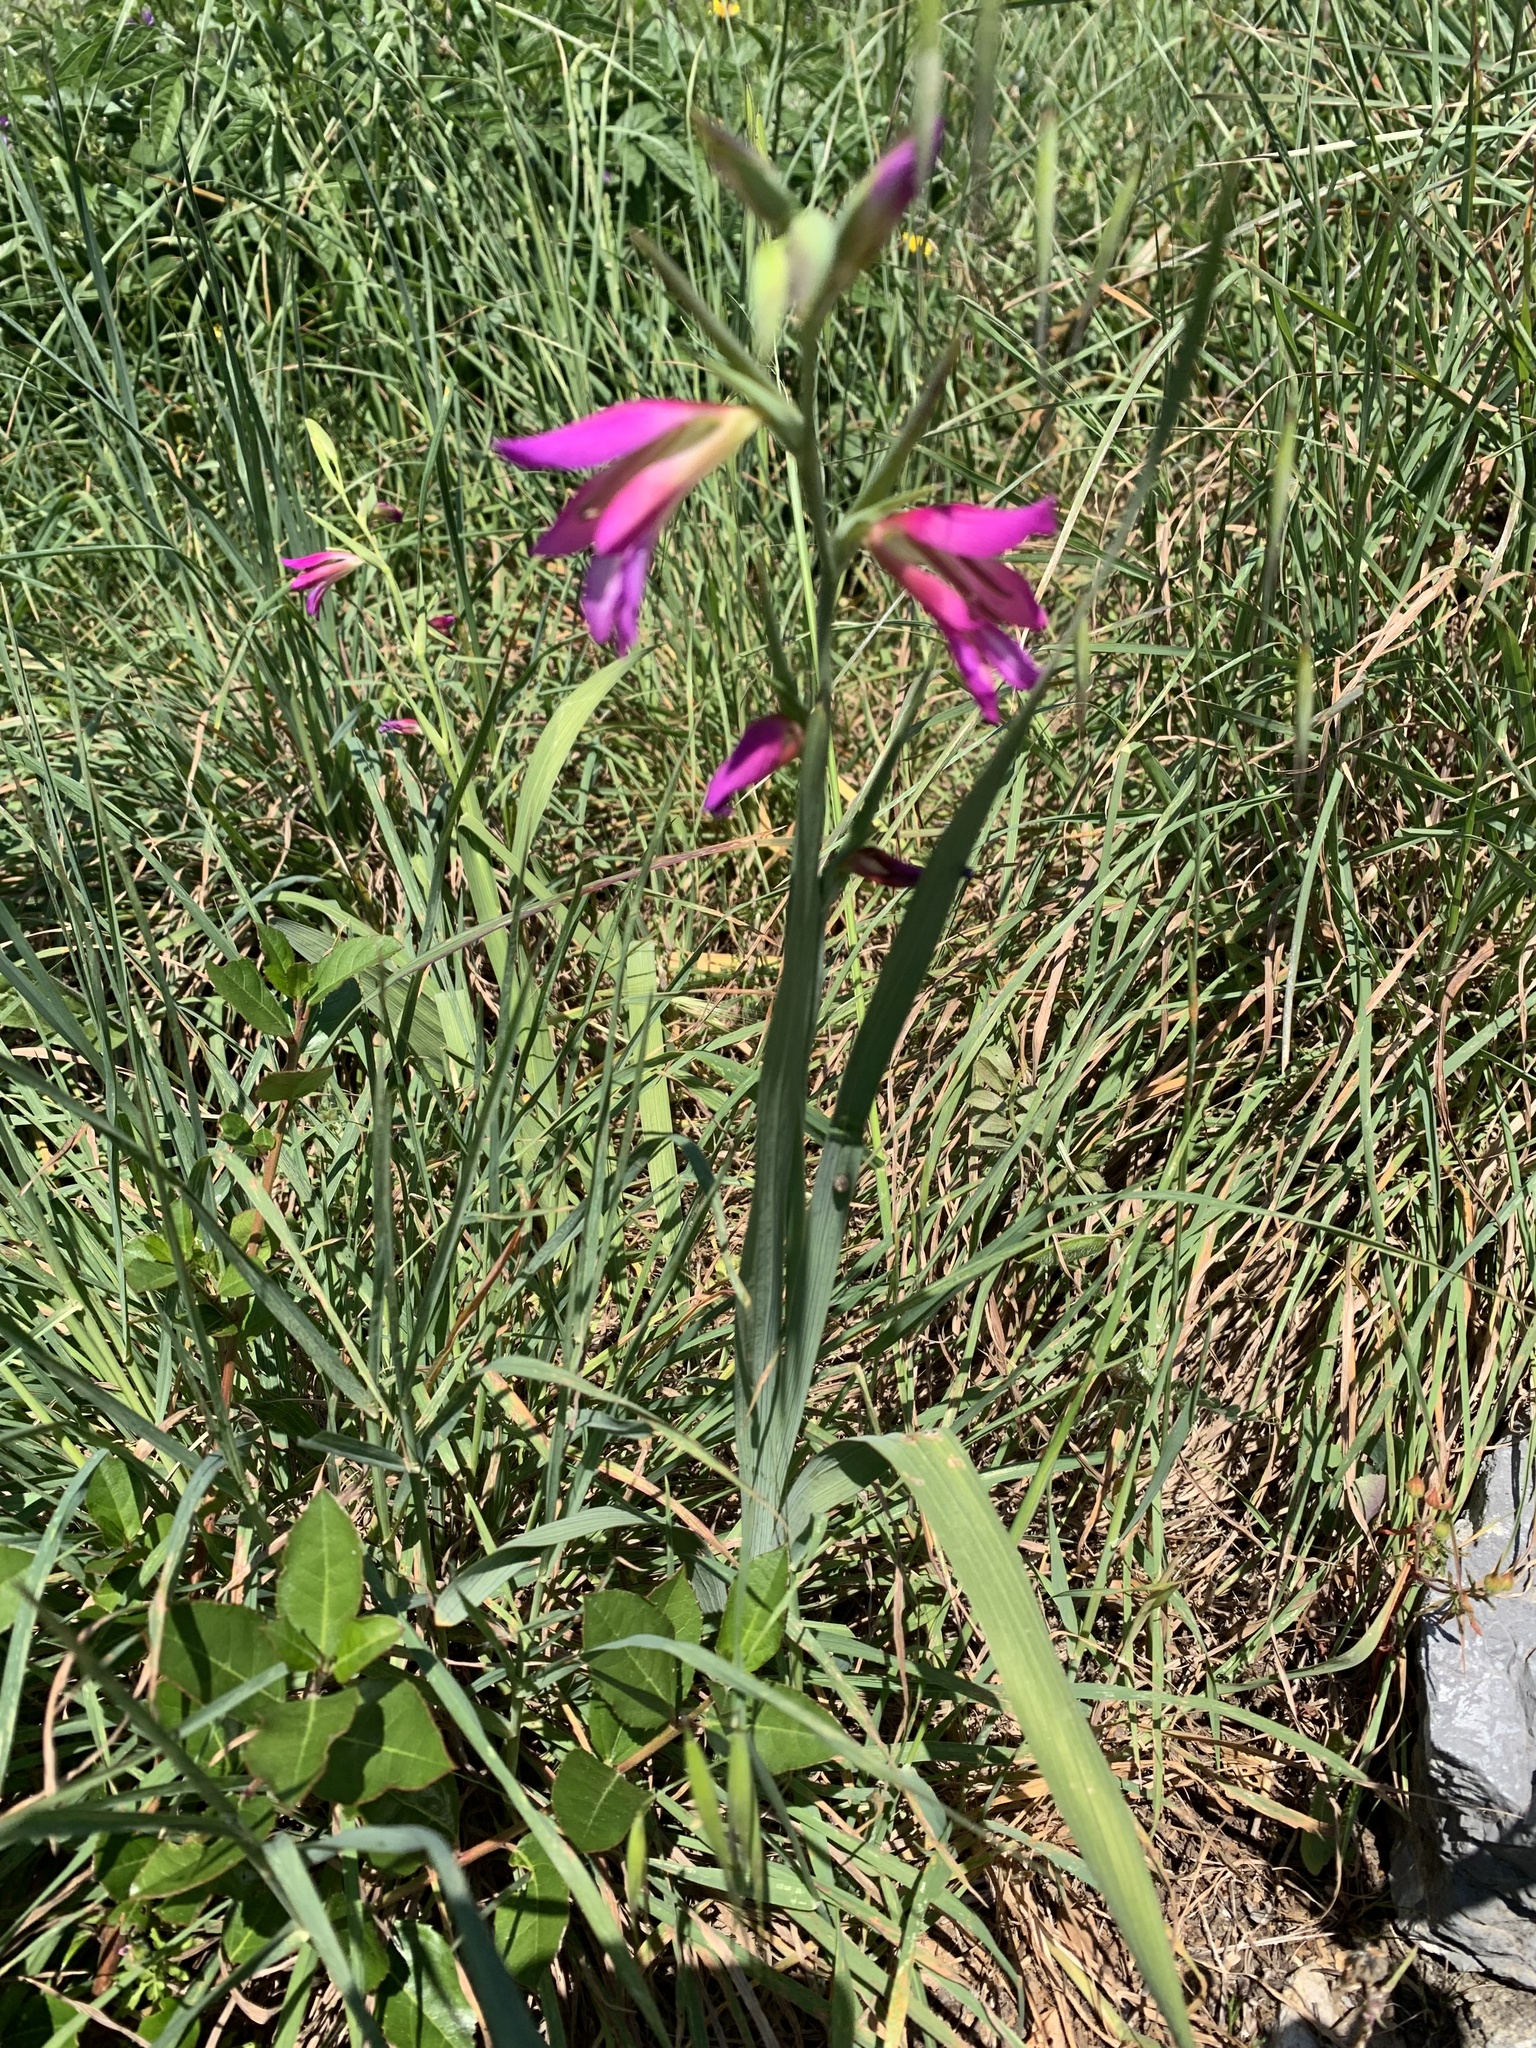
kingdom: Plantae
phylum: Tracheophyta
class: Liliopsida
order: Asparagales
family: Iridaceae
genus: Gladiolus
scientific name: Gladiolus italicus
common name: Field gladiolus
